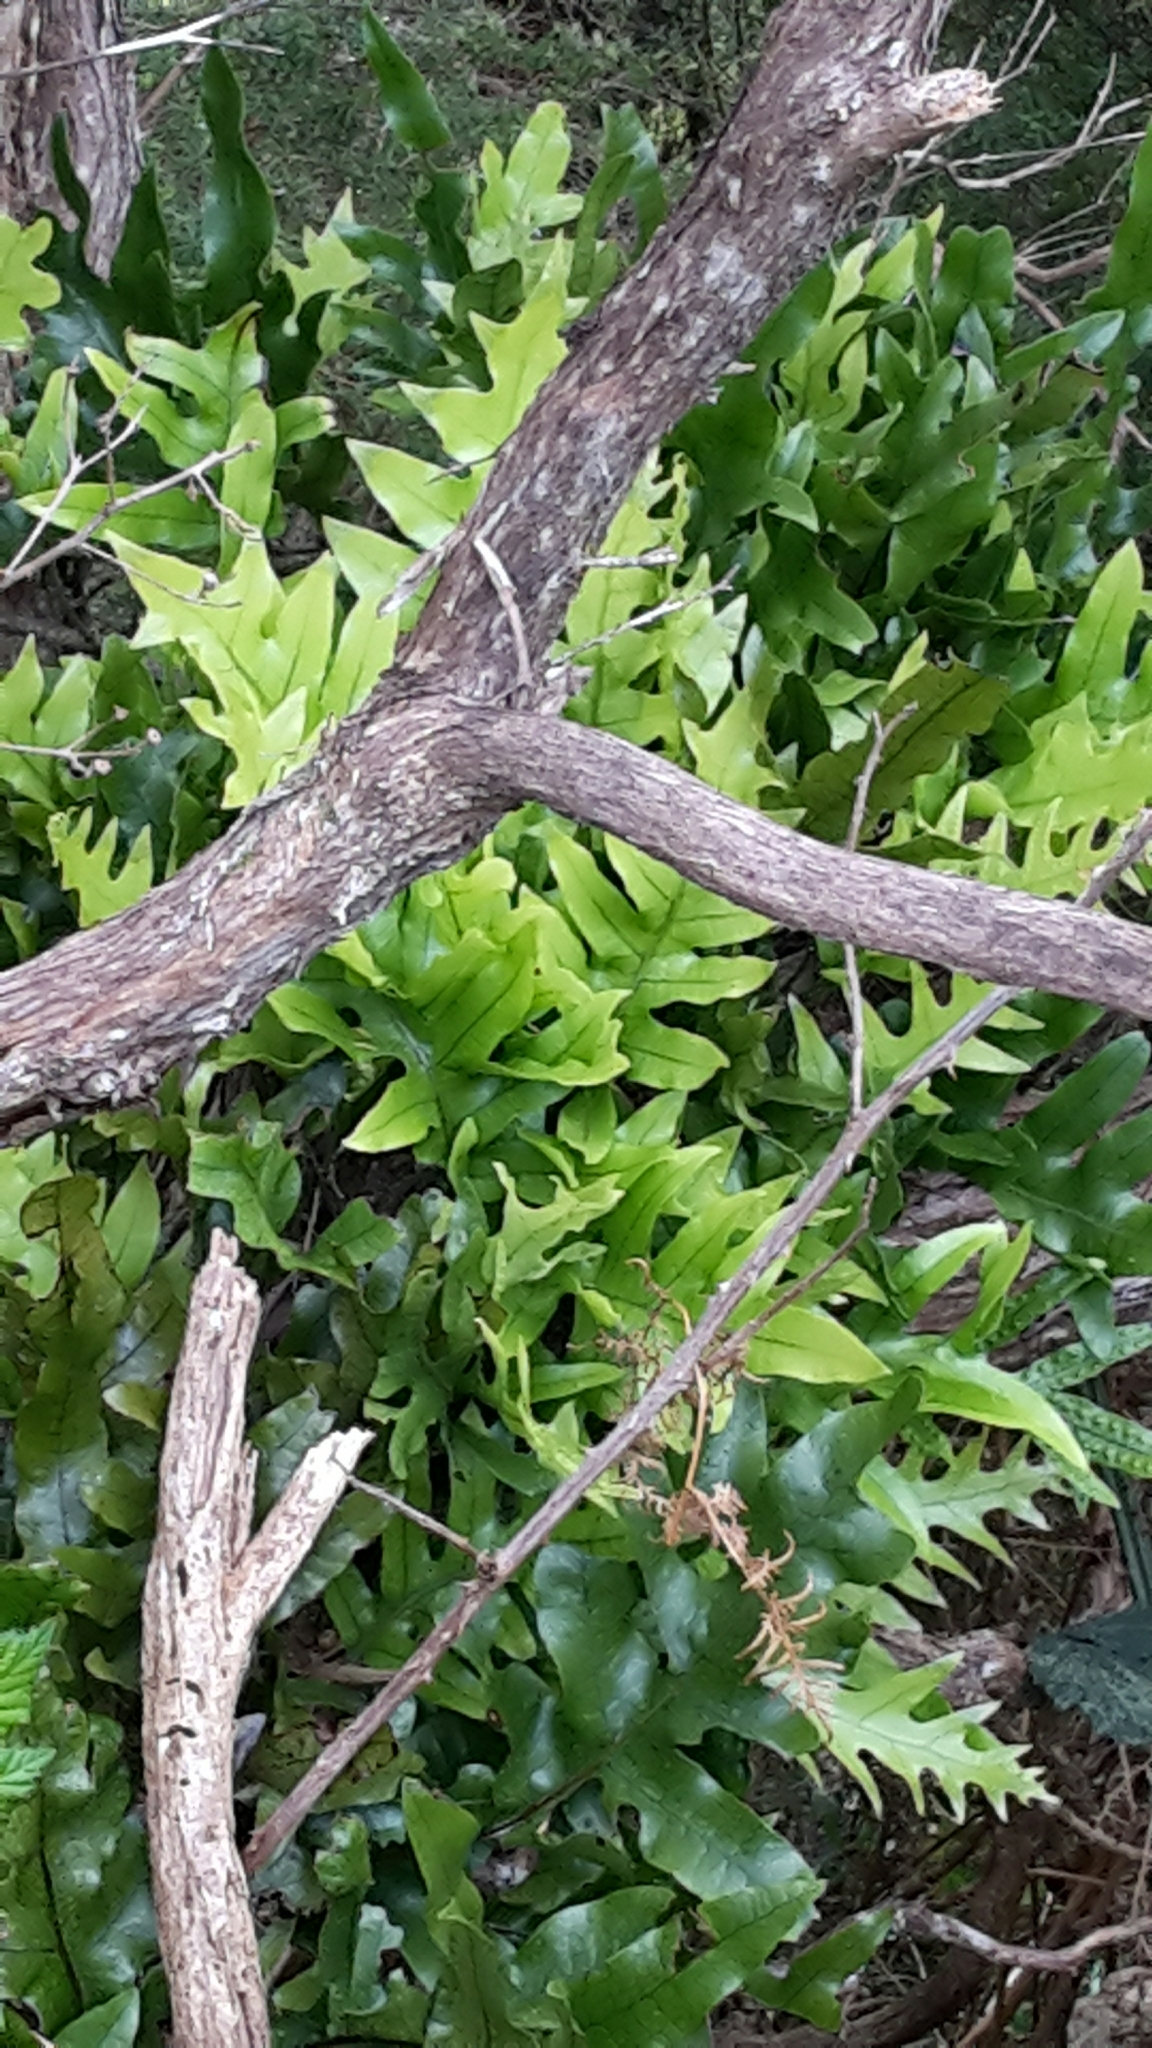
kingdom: Plantae
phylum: Tracheophyta
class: Polypodiopsida
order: Polypodiales
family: Polypodiaceae
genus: Lecanopteris
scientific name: Lecanopteris pustulata
